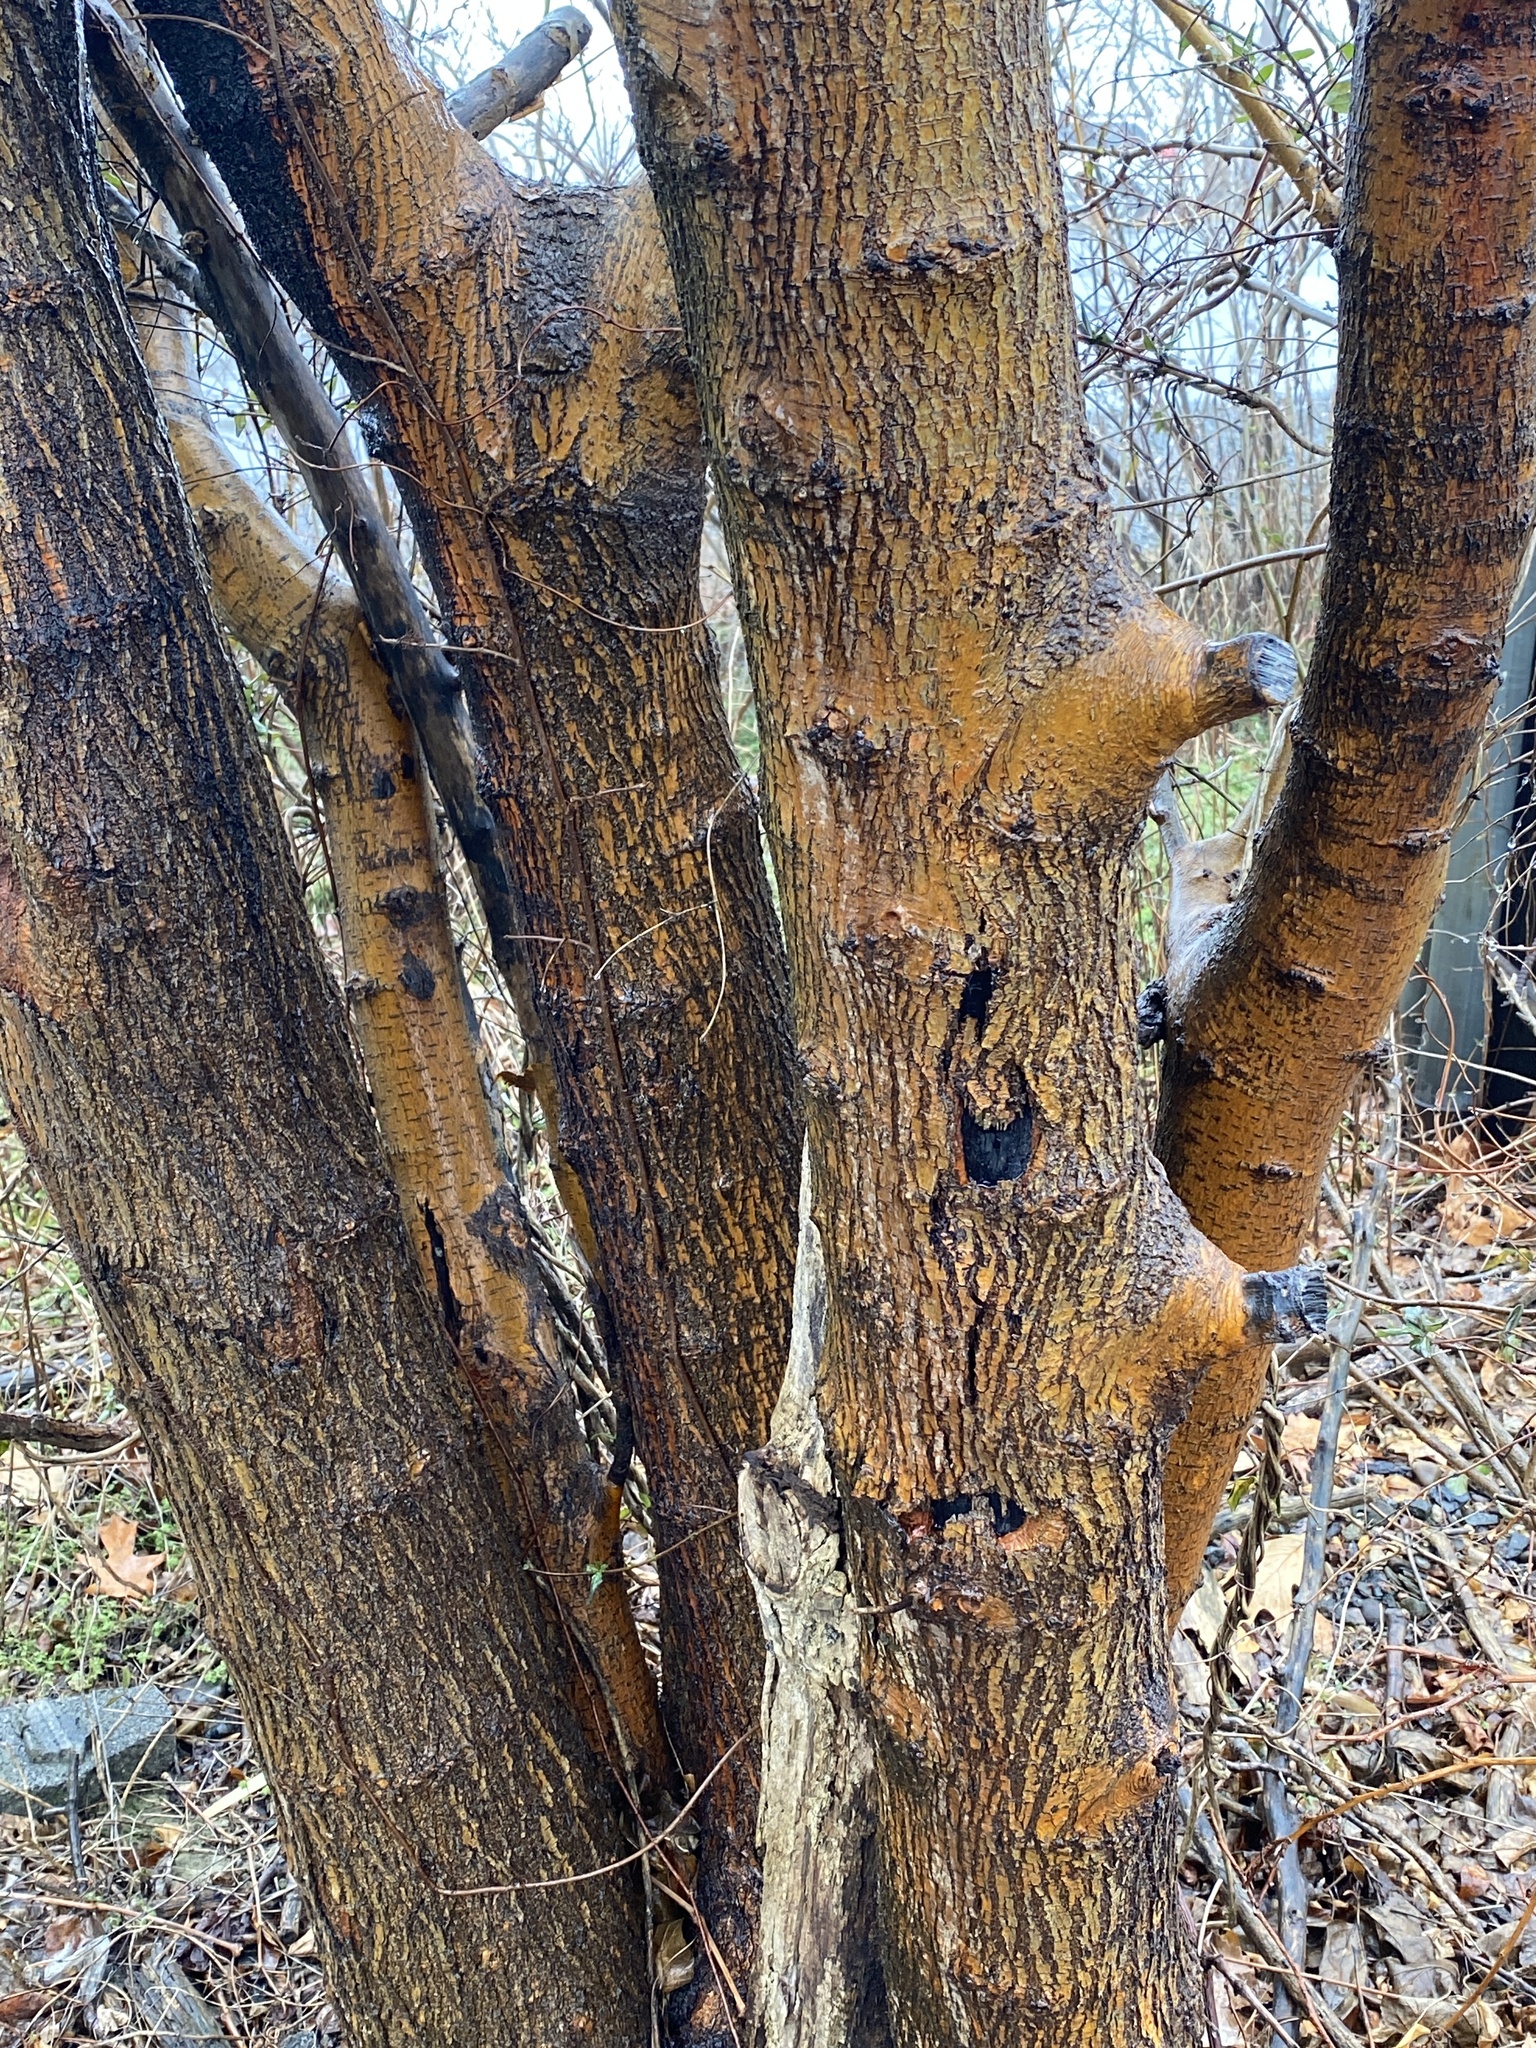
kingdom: Plantae
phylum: Tracheophyta
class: Magnoliopsida
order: Rosales
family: Moraceae
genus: Morus
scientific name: Morus alba
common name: White mulberry
